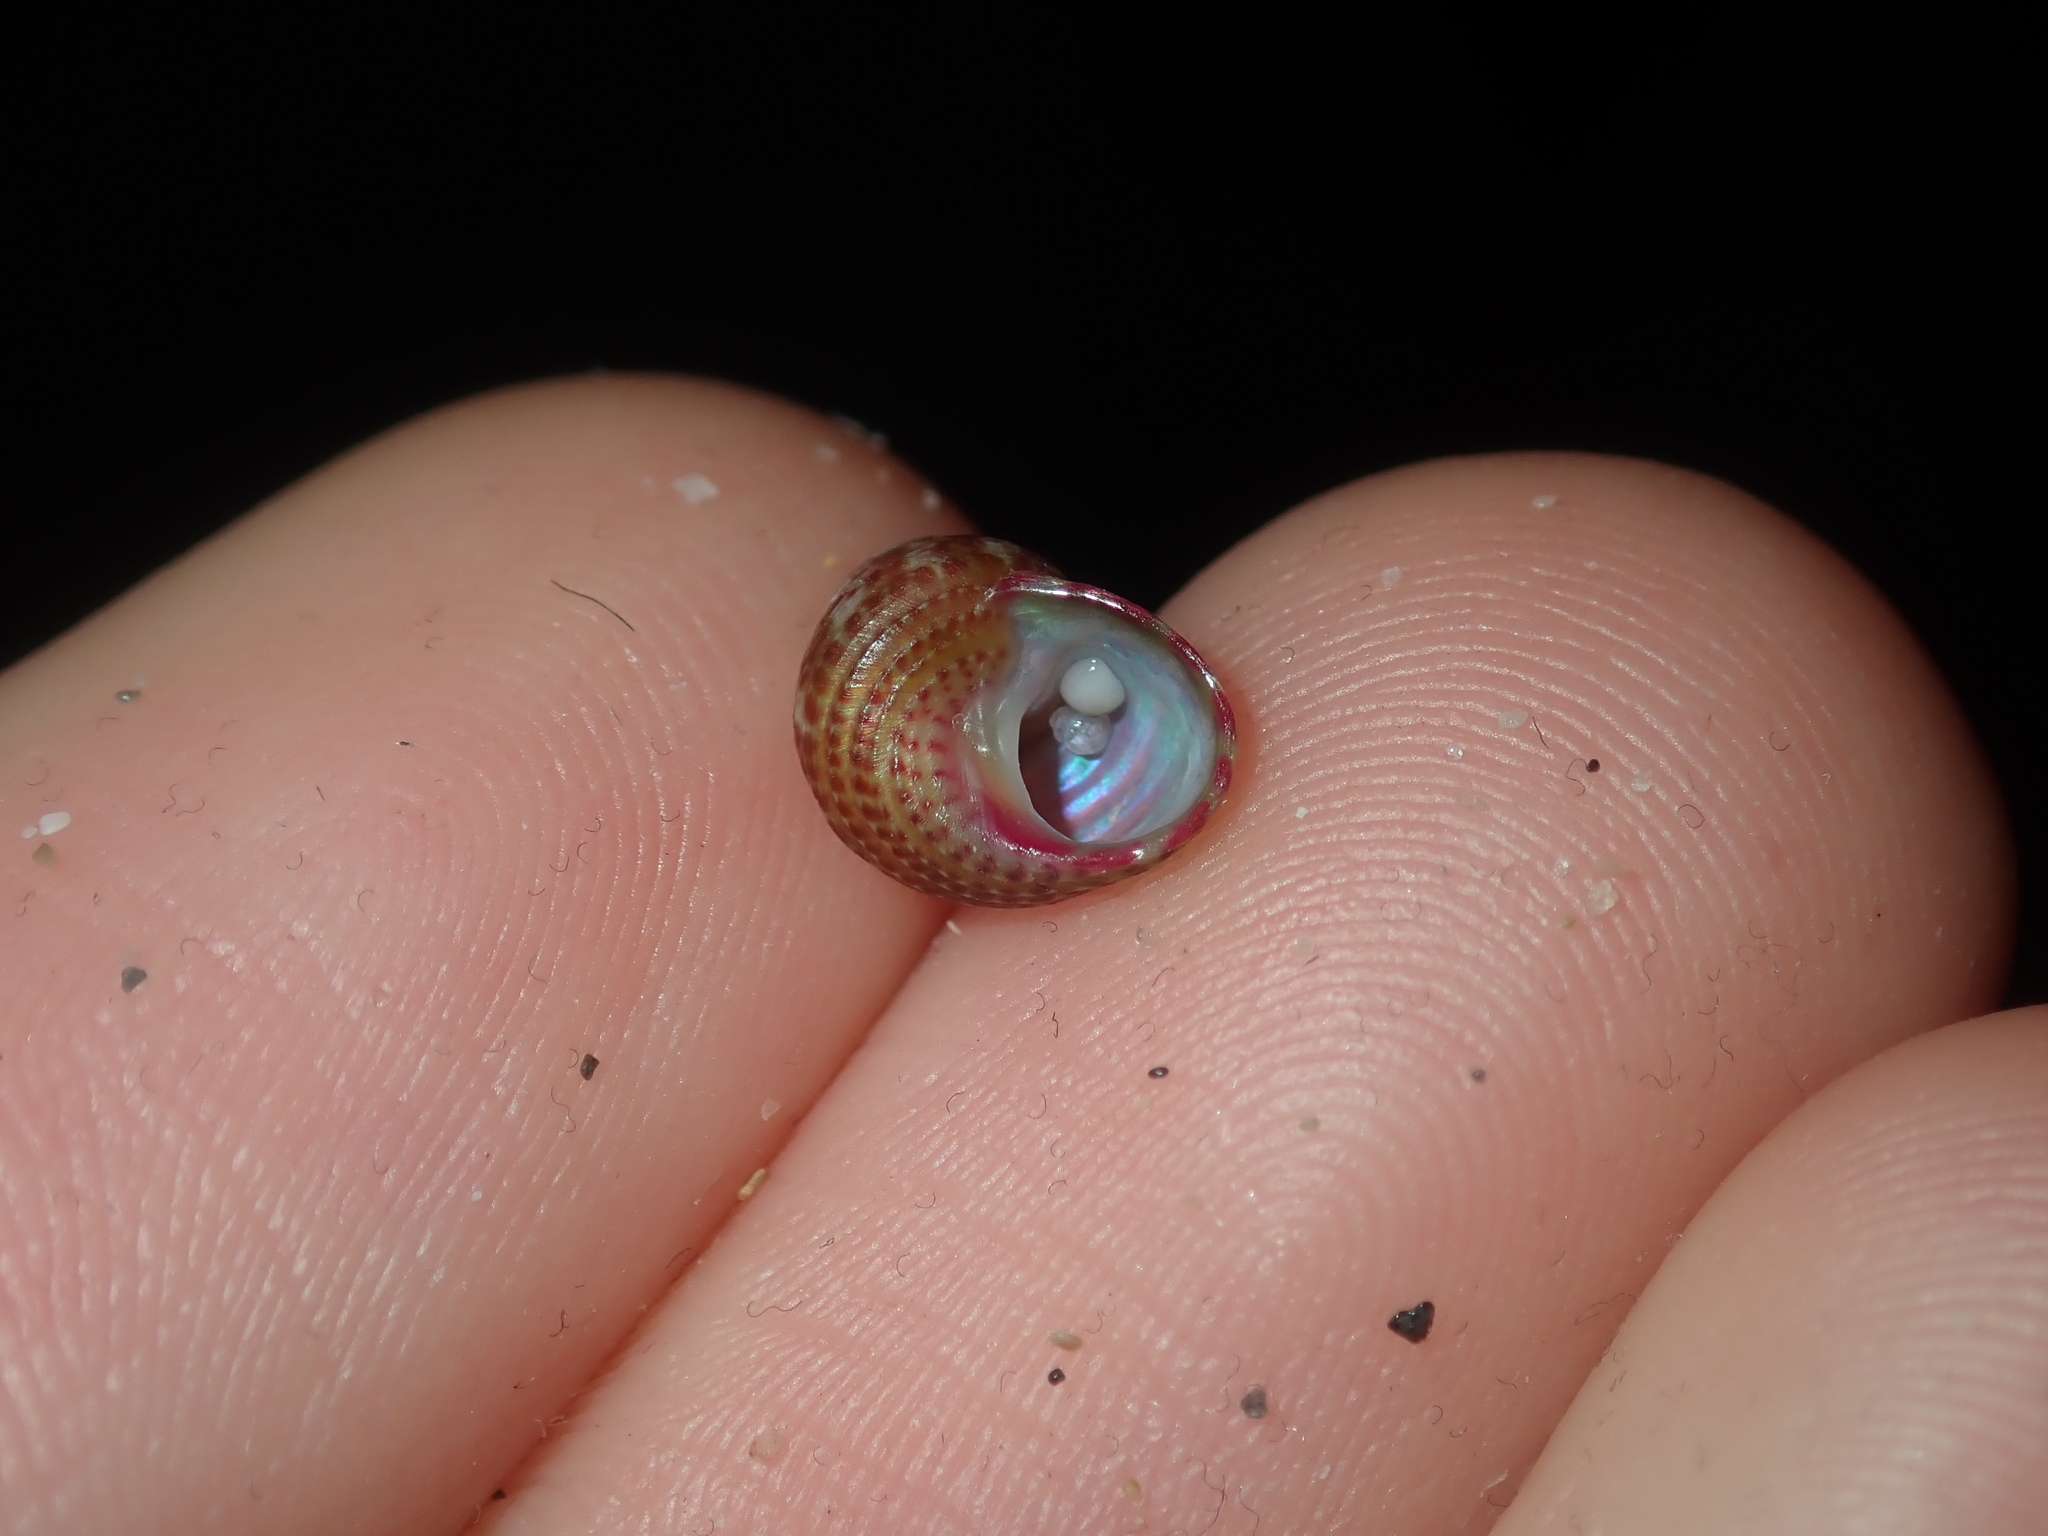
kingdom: Animalia
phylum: Mollusca
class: Gastropoda
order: Trochida
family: Trochidae
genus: Prothalotia
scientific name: Prothalotia pulcherrima
